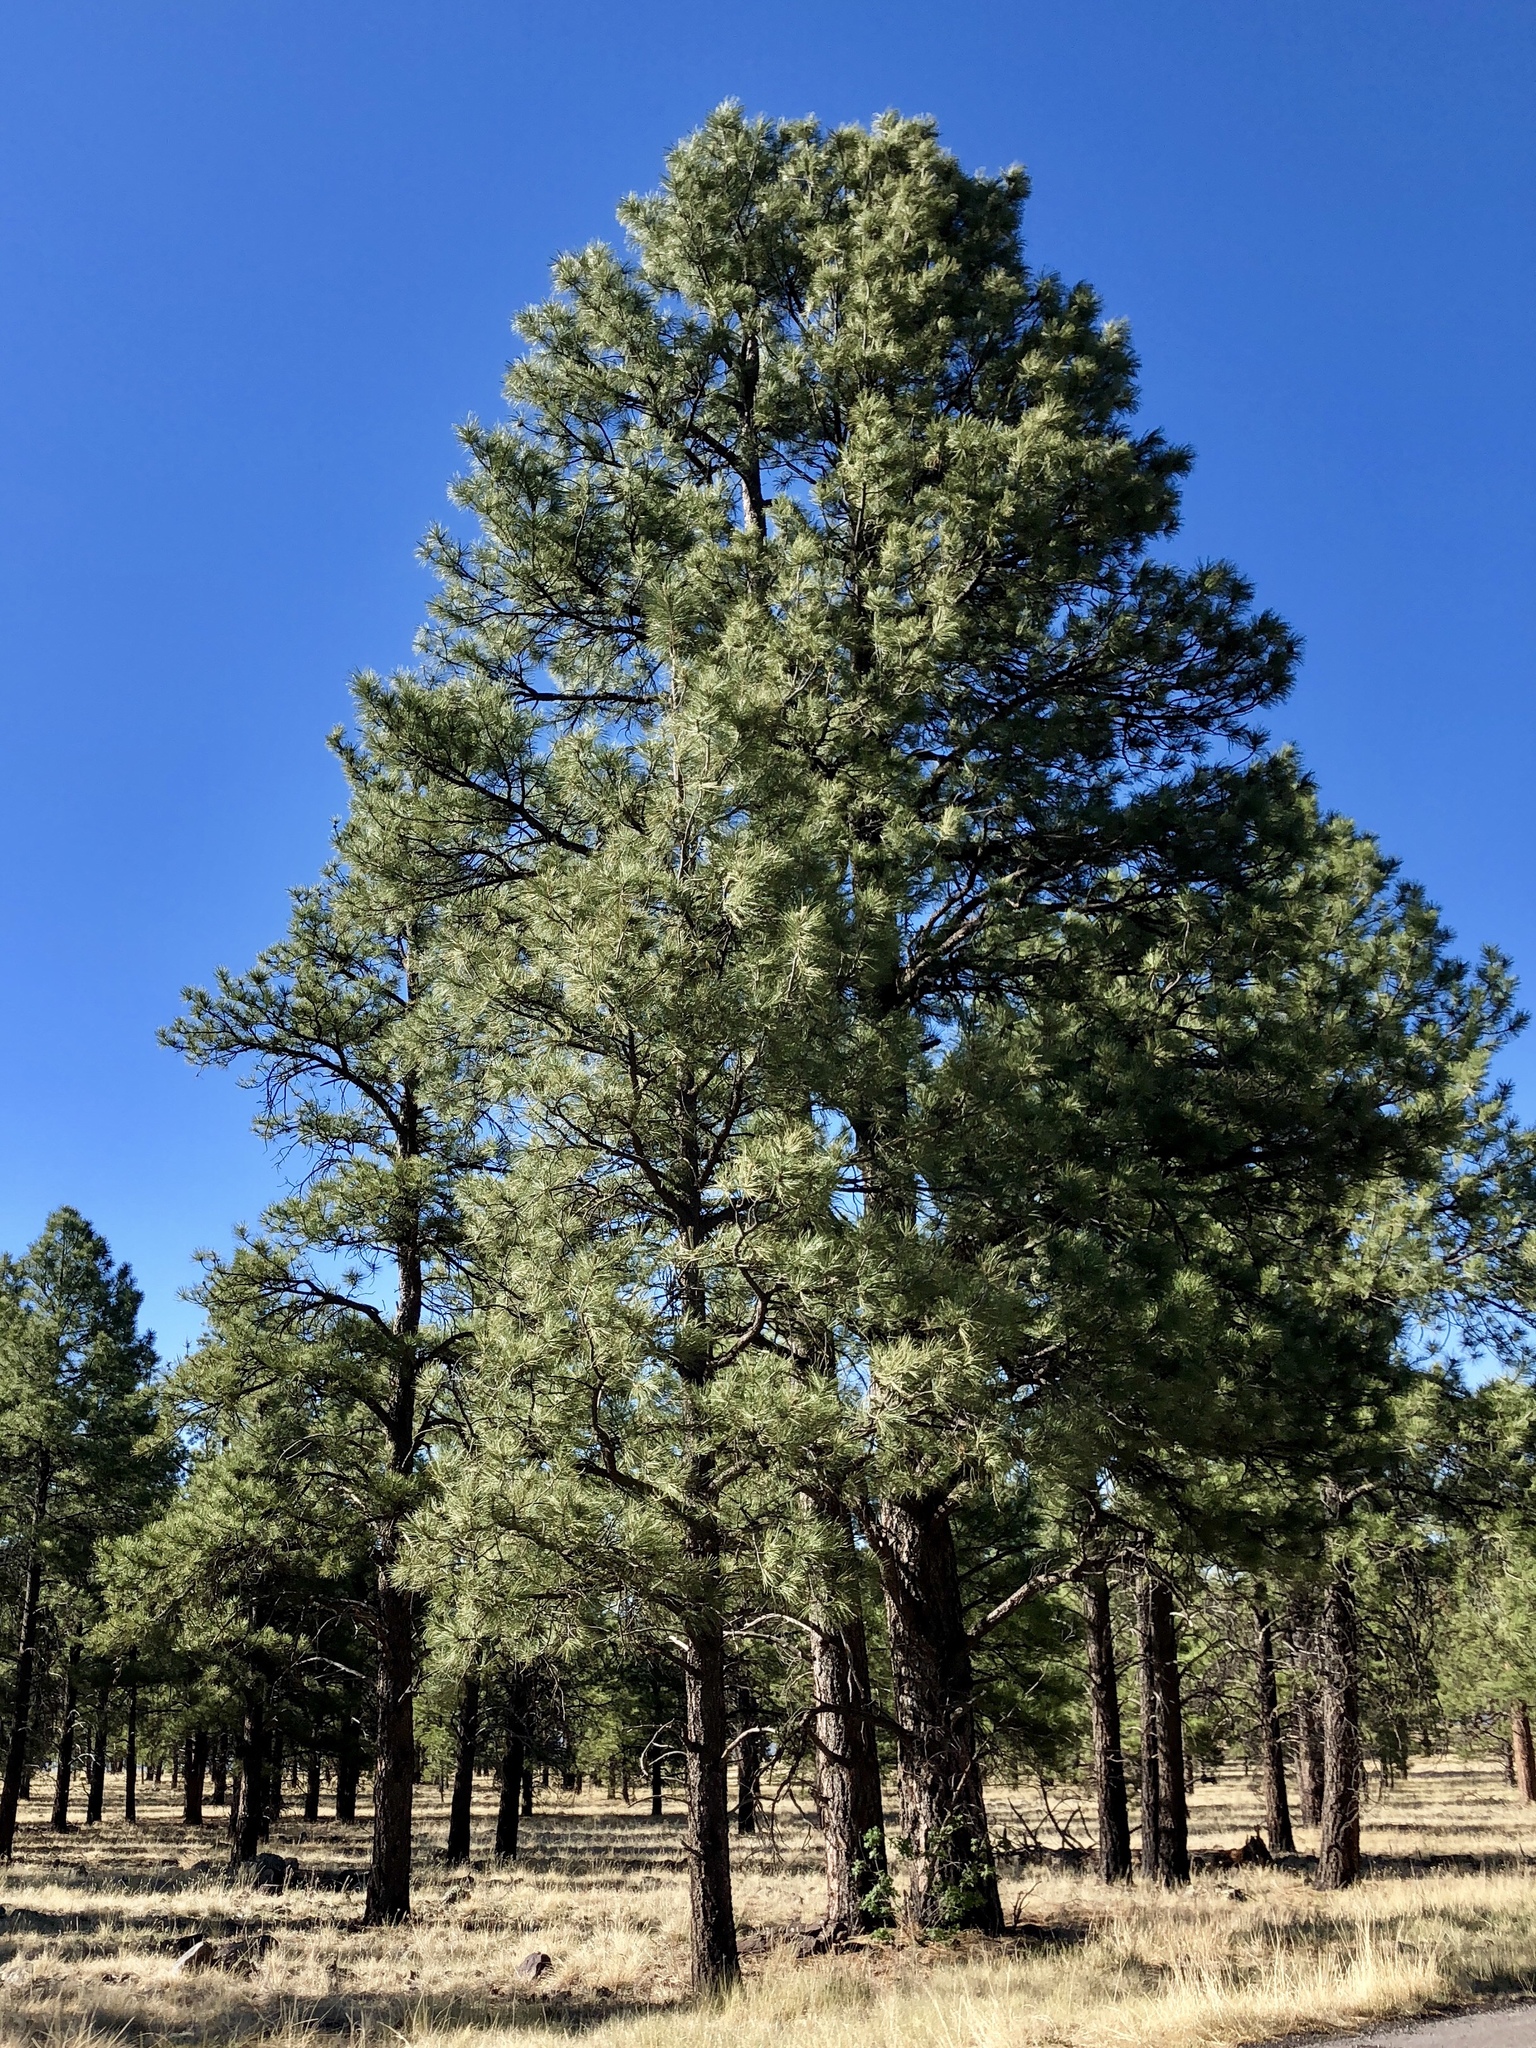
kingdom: Plantae
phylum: Tracheophyta
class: Pinopsida
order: Pinales
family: Pinaceae
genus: Pinus
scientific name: Pinus ponderosa
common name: Western yellow-pine
